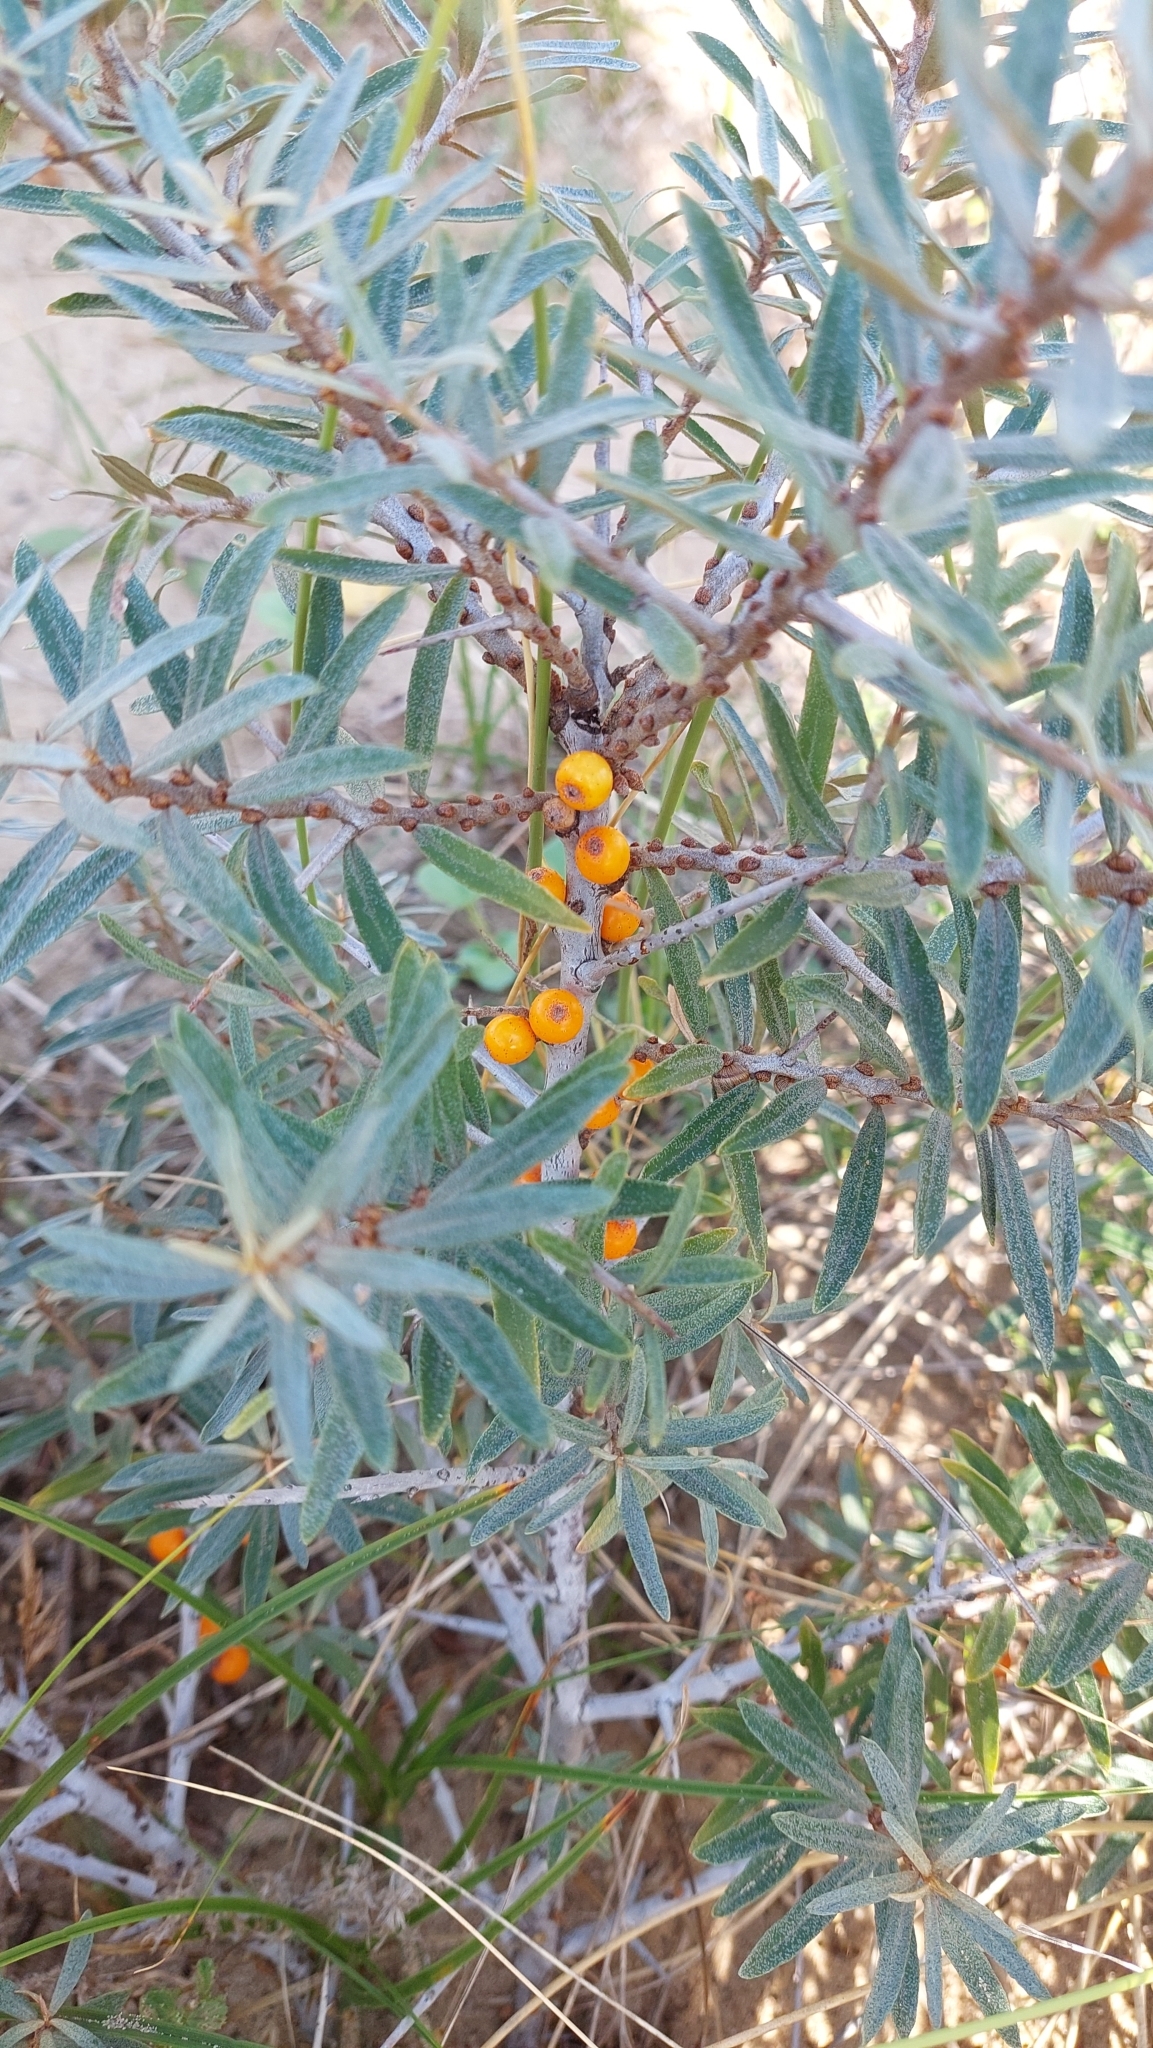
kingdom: Plantae
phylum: Tracheophyta
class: Magnoliopsida
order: Rosales
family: Elaeagnaceae
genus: Hippophae
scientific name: Hippophae rhamnoides
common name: Sea-buckthorn
